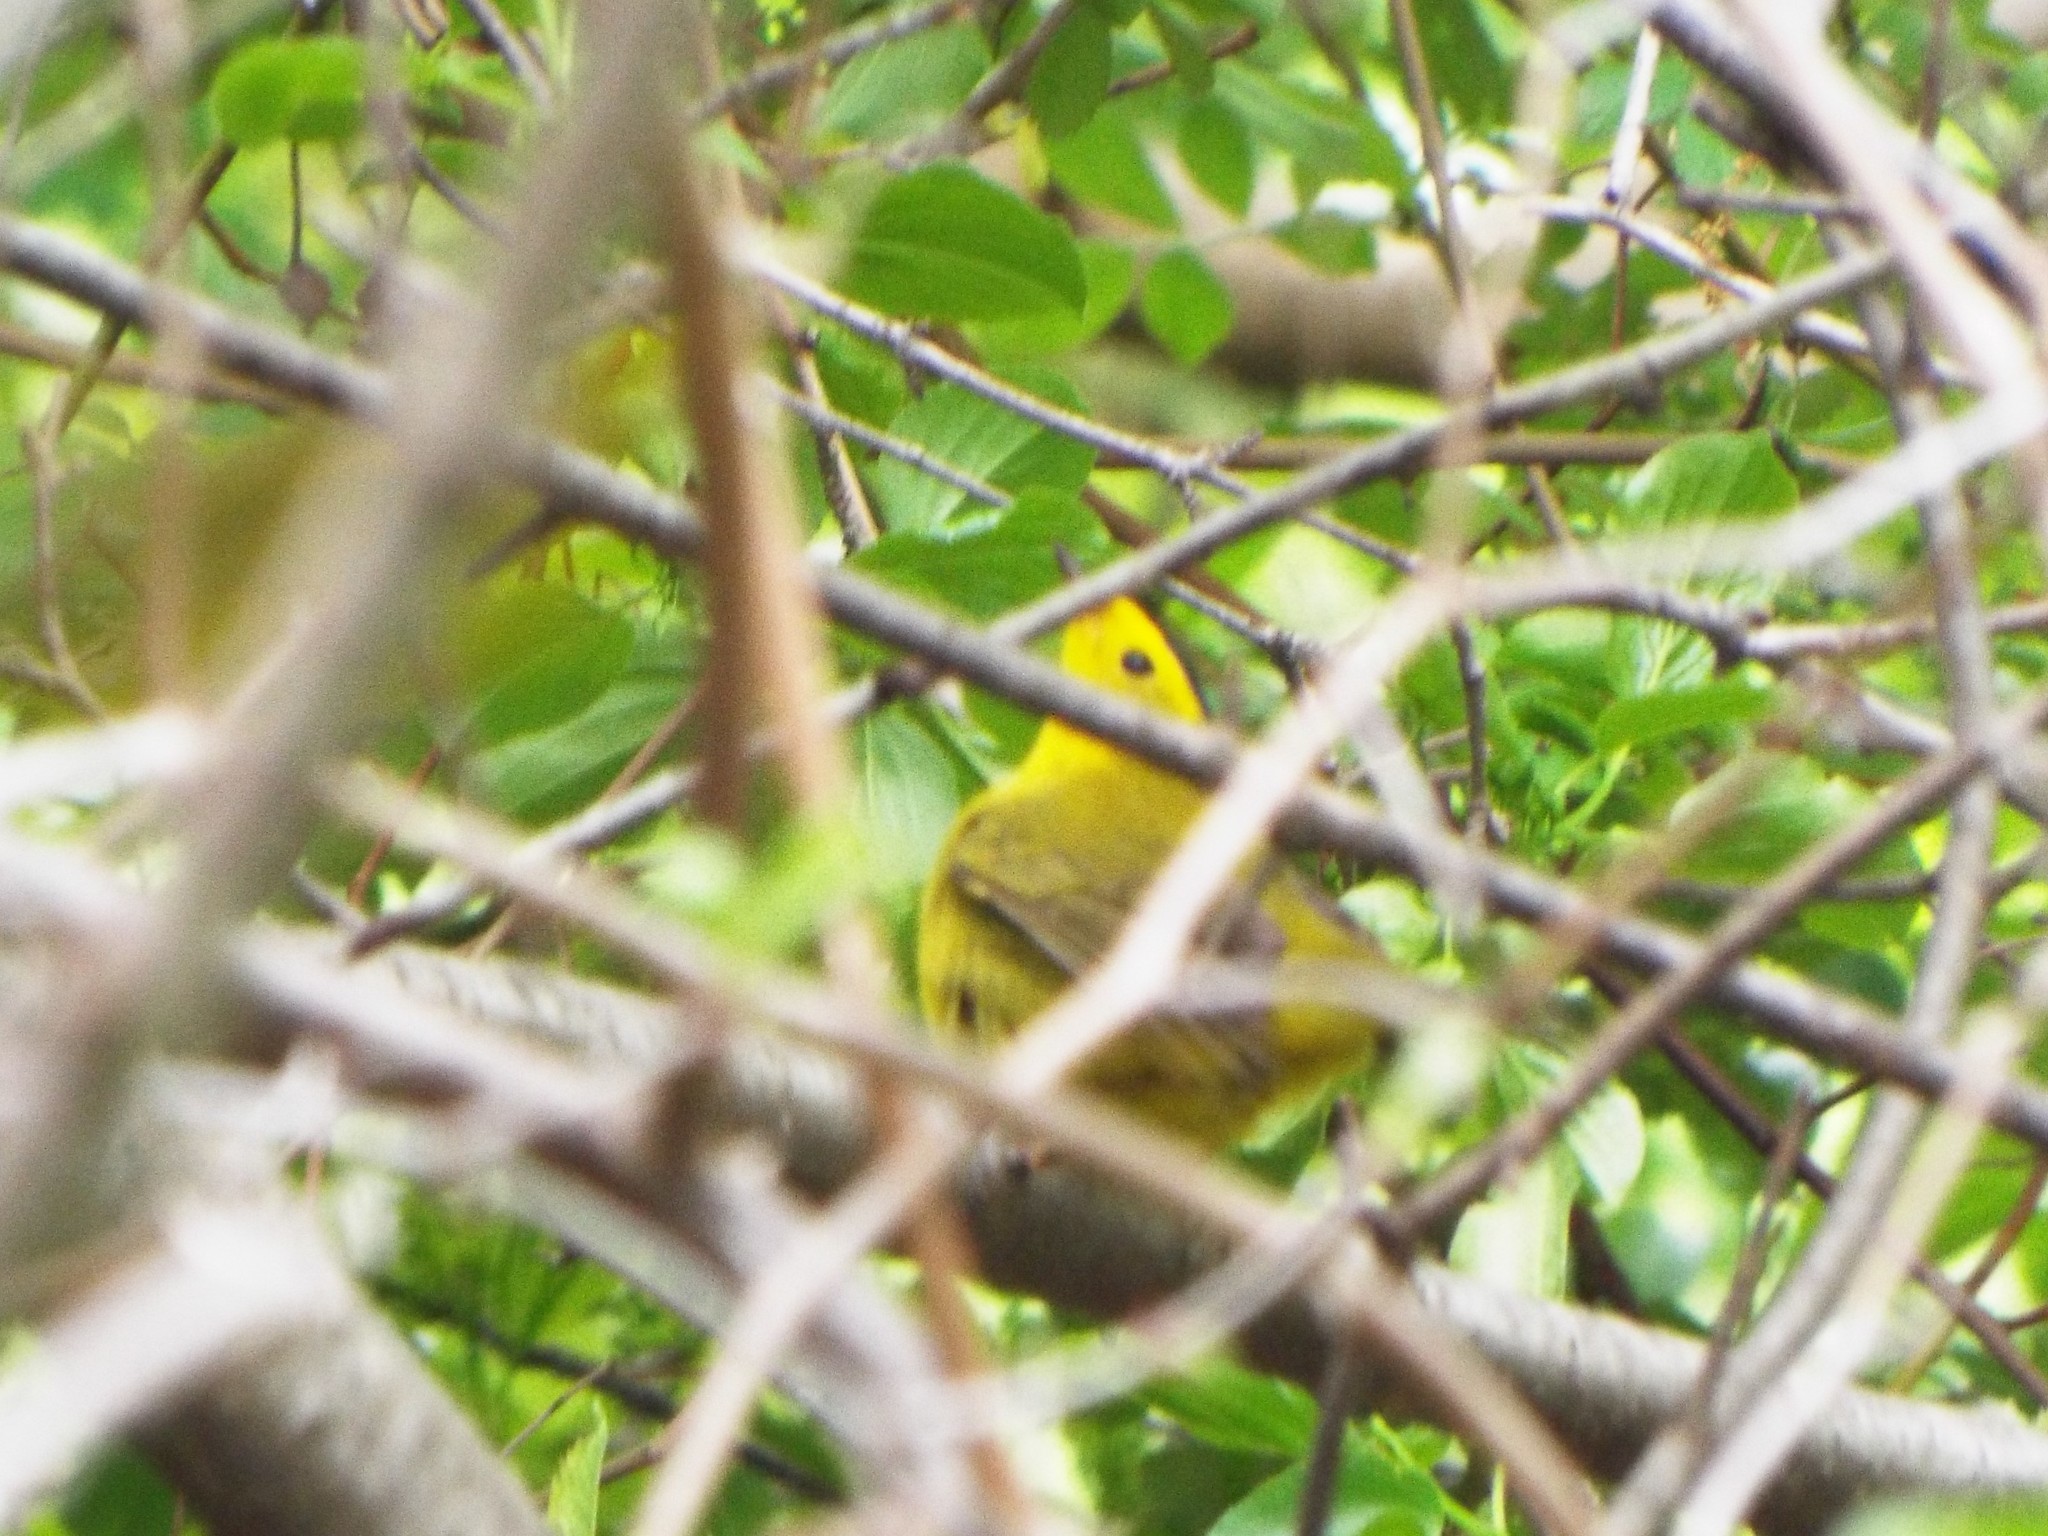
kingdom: Animalia
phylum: Chordata
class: Aves
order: Passeriformes
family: Parulidae
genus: Cardellina
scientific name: Cardellina pusilla
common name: Wilson's warbler
